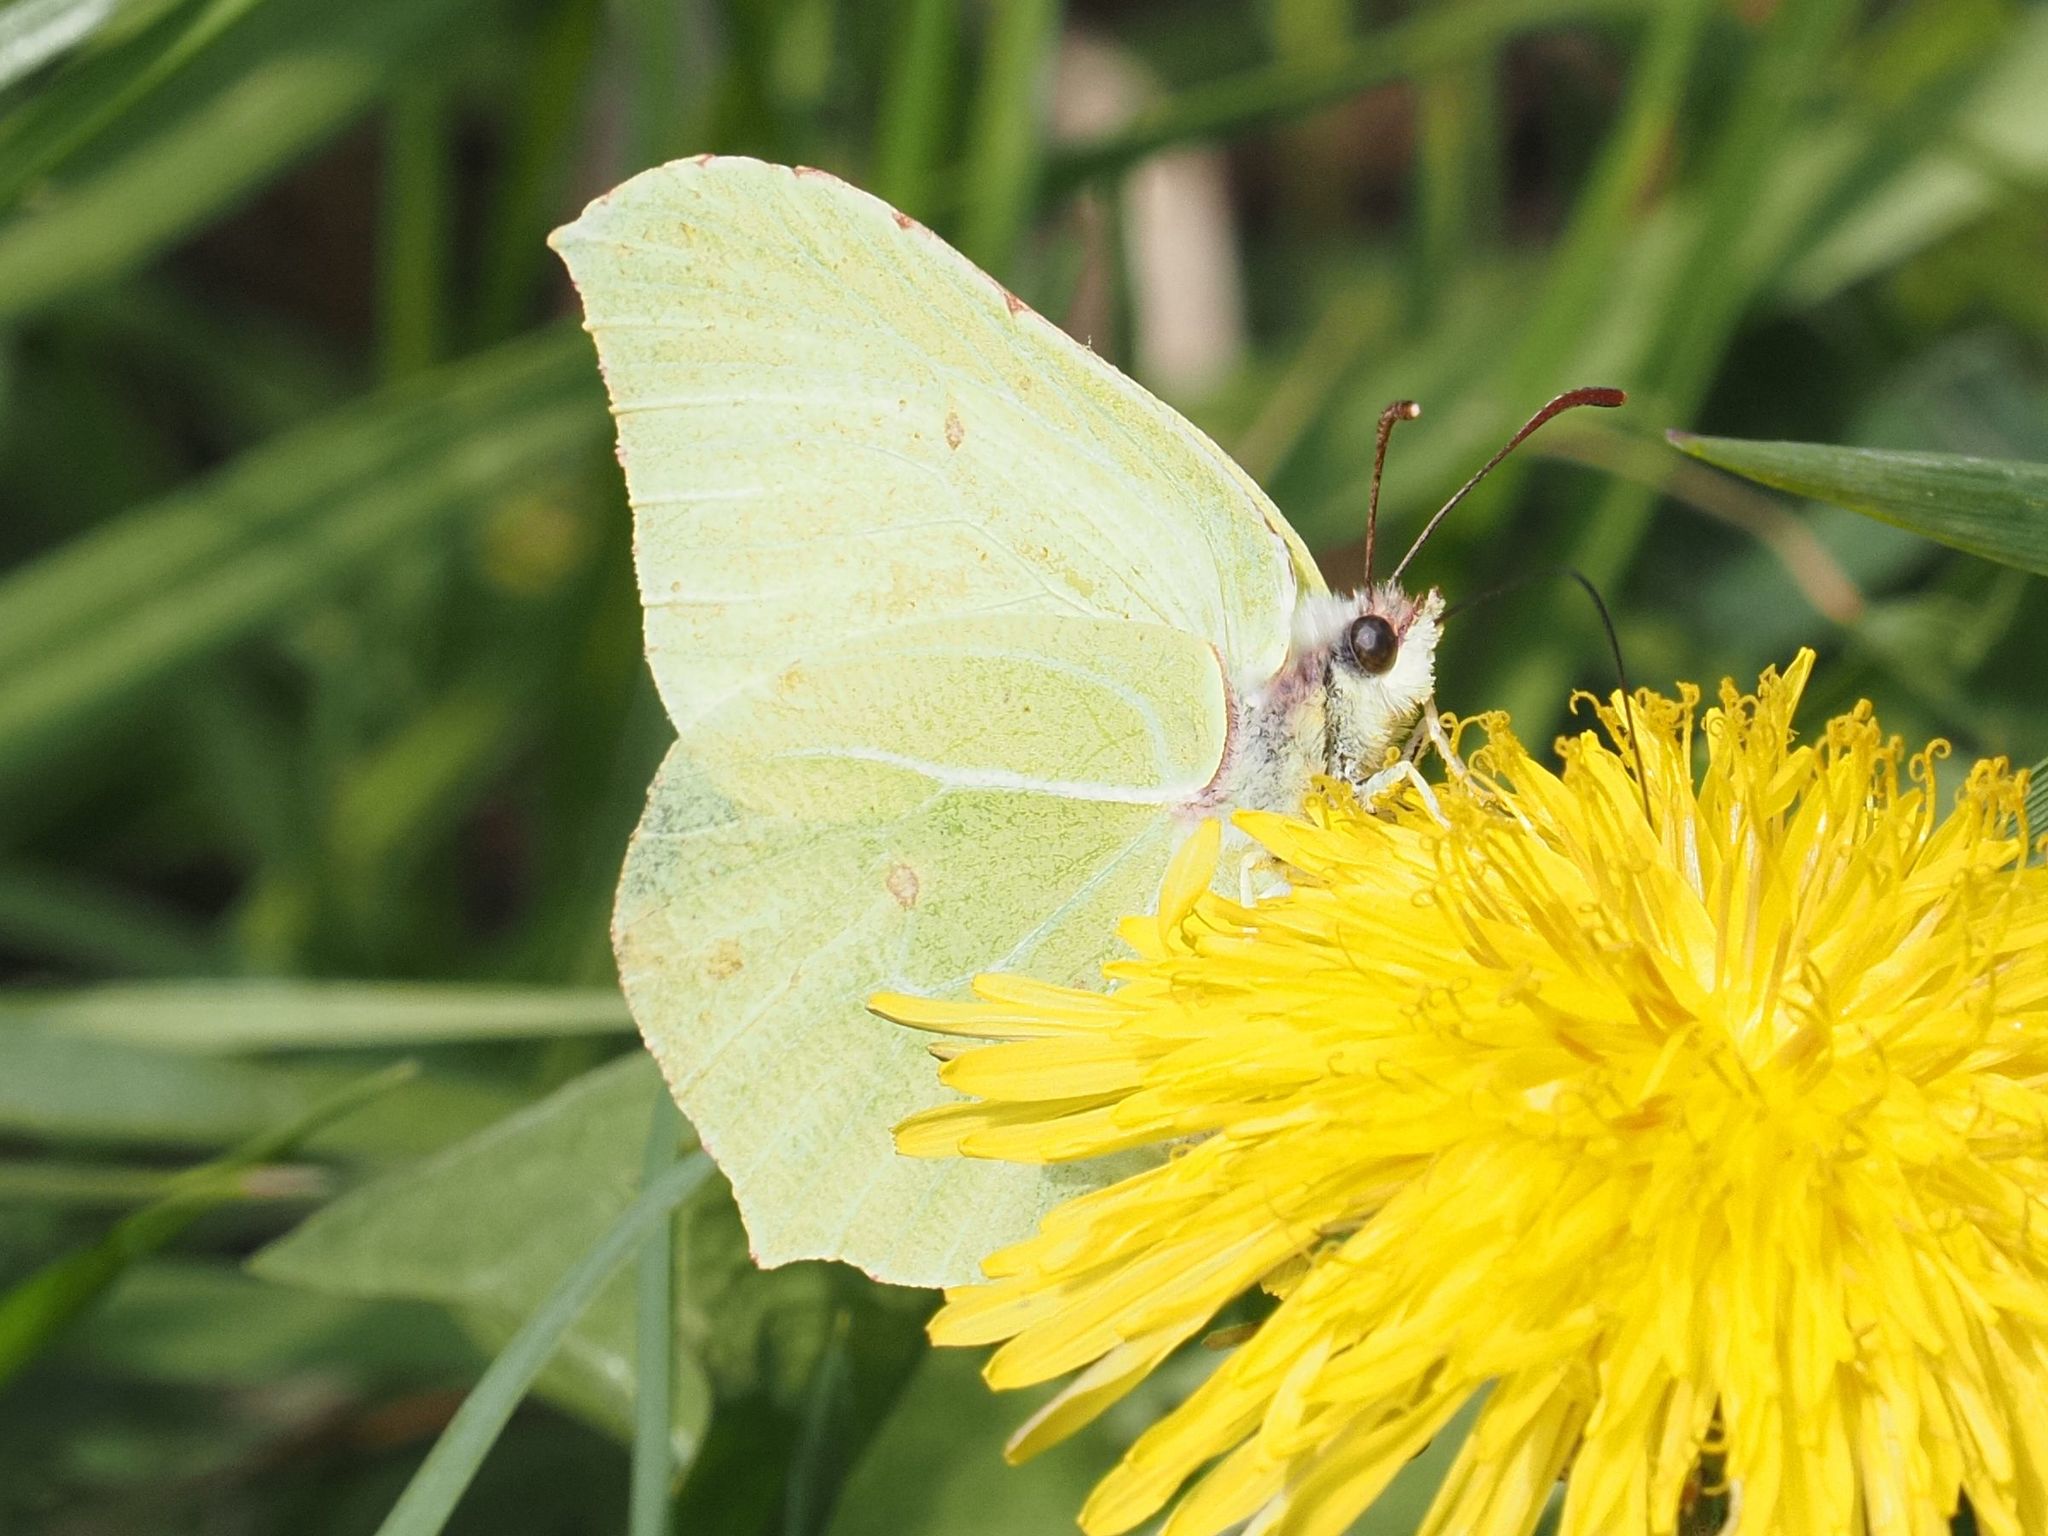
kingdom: Animalia
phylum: Arthropoda
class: Insecta
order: Lepidoptera
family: Pieridae
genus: Gonepteryx
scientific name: Gonepteryx rhamni
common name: Brimstone
